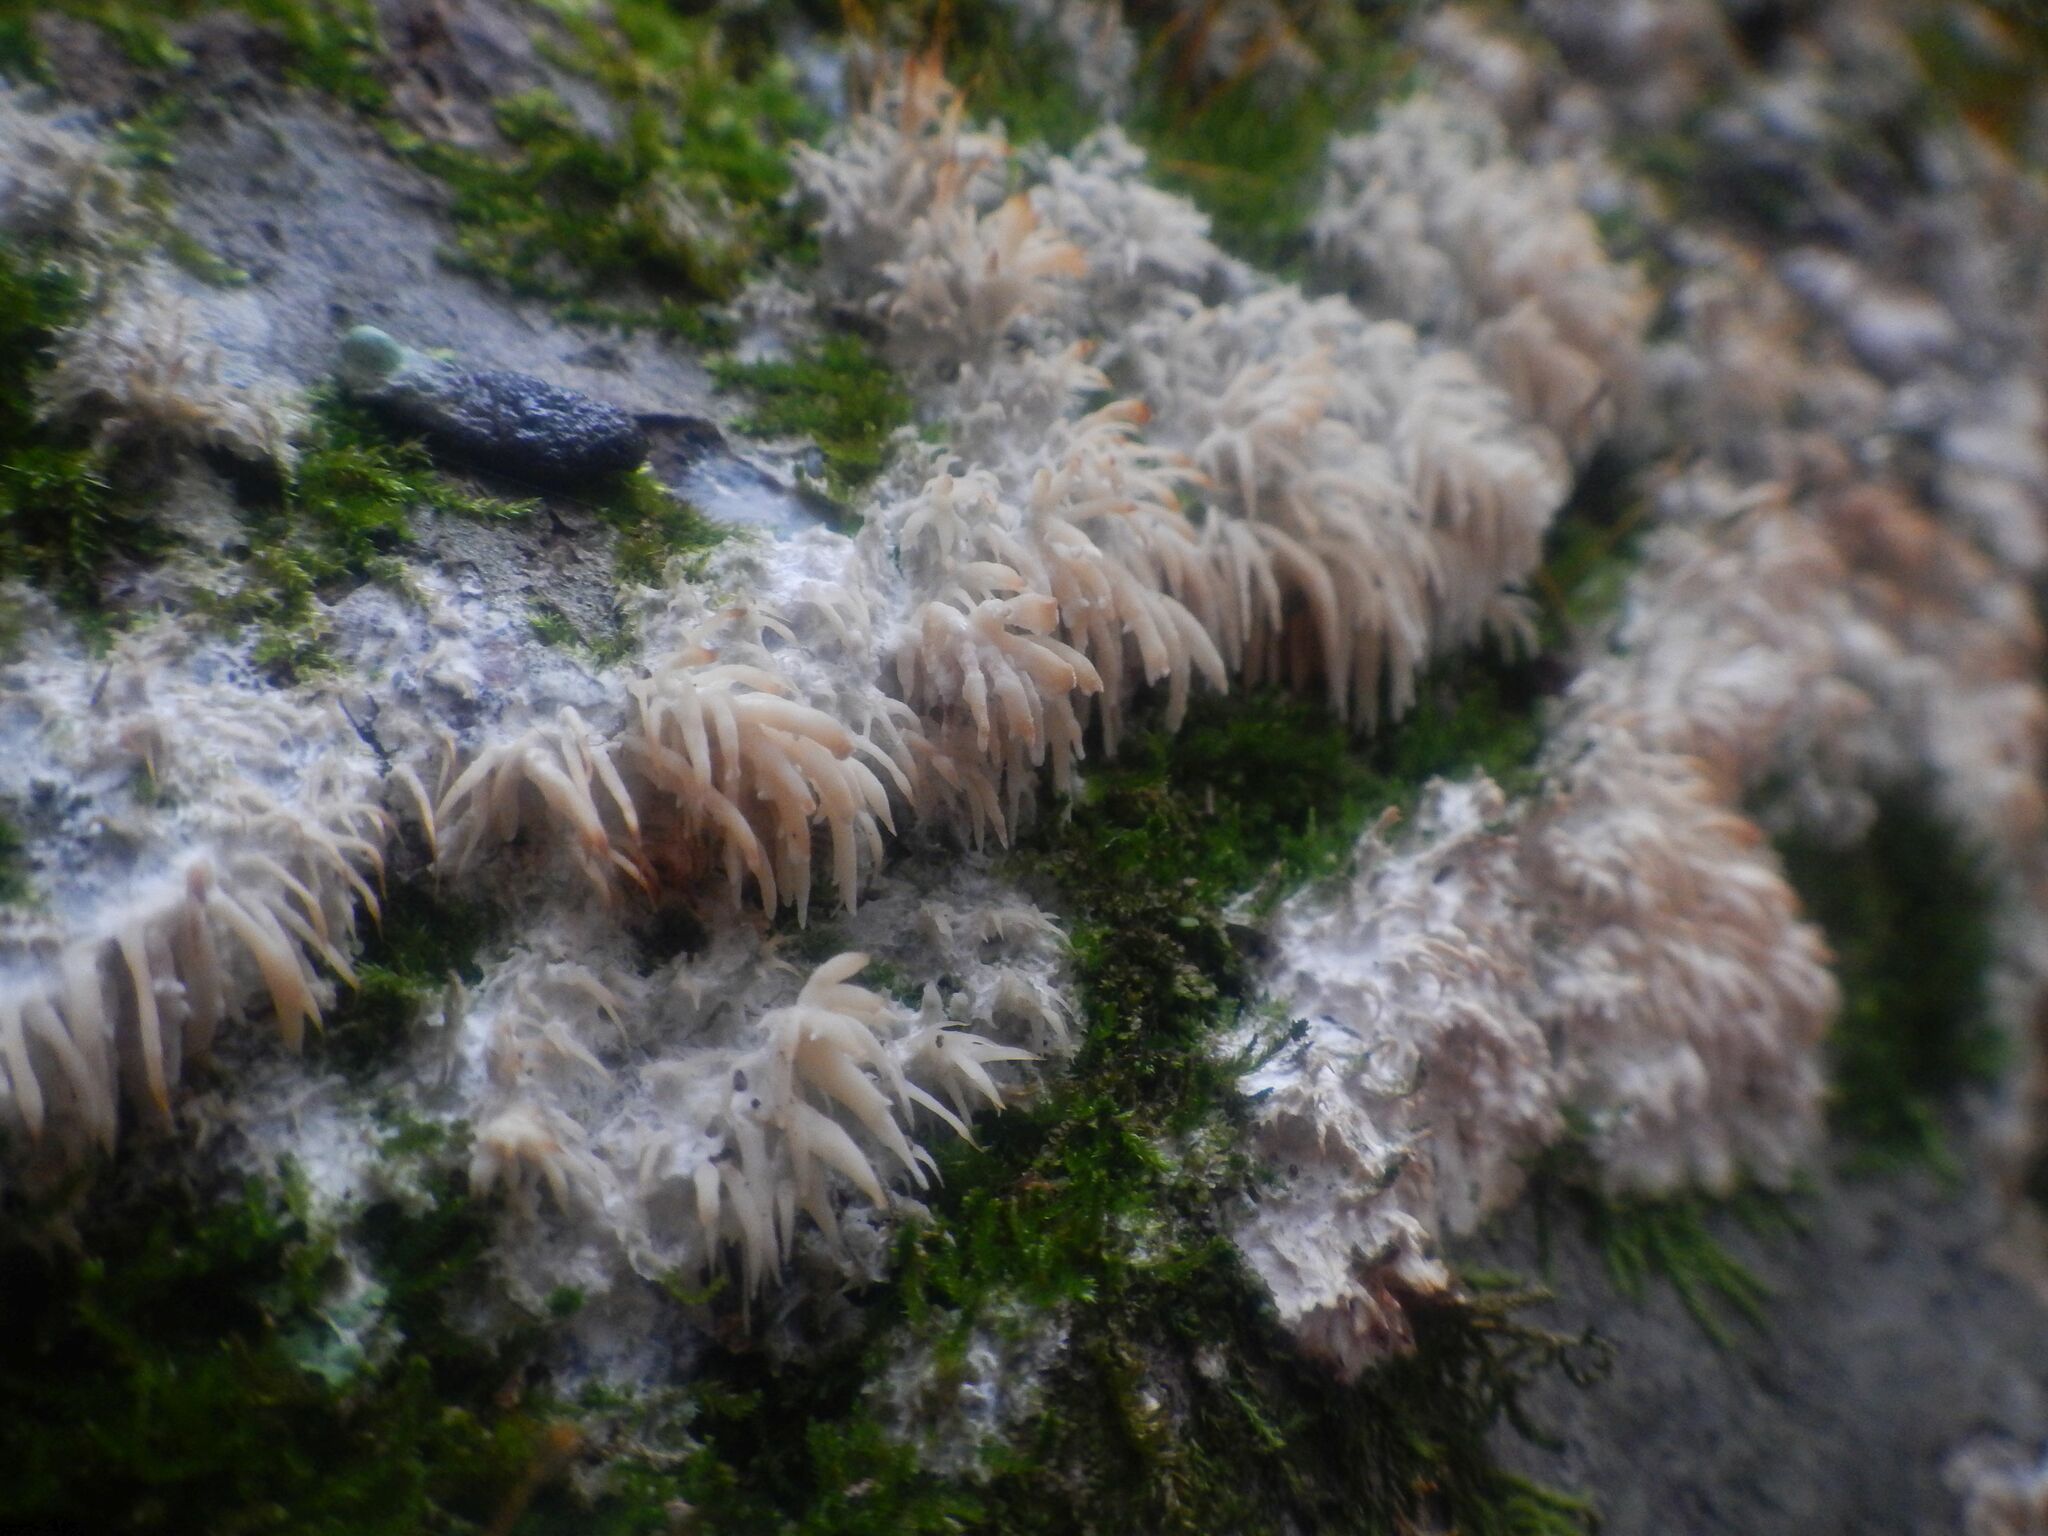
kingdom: Fungi
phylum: Basidiomycota
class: Agaricomycetes
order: Agaricales
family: Radulomycetaceae
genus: Radulomyces
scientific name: Radulomyces copelandii
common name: Asian beauty
